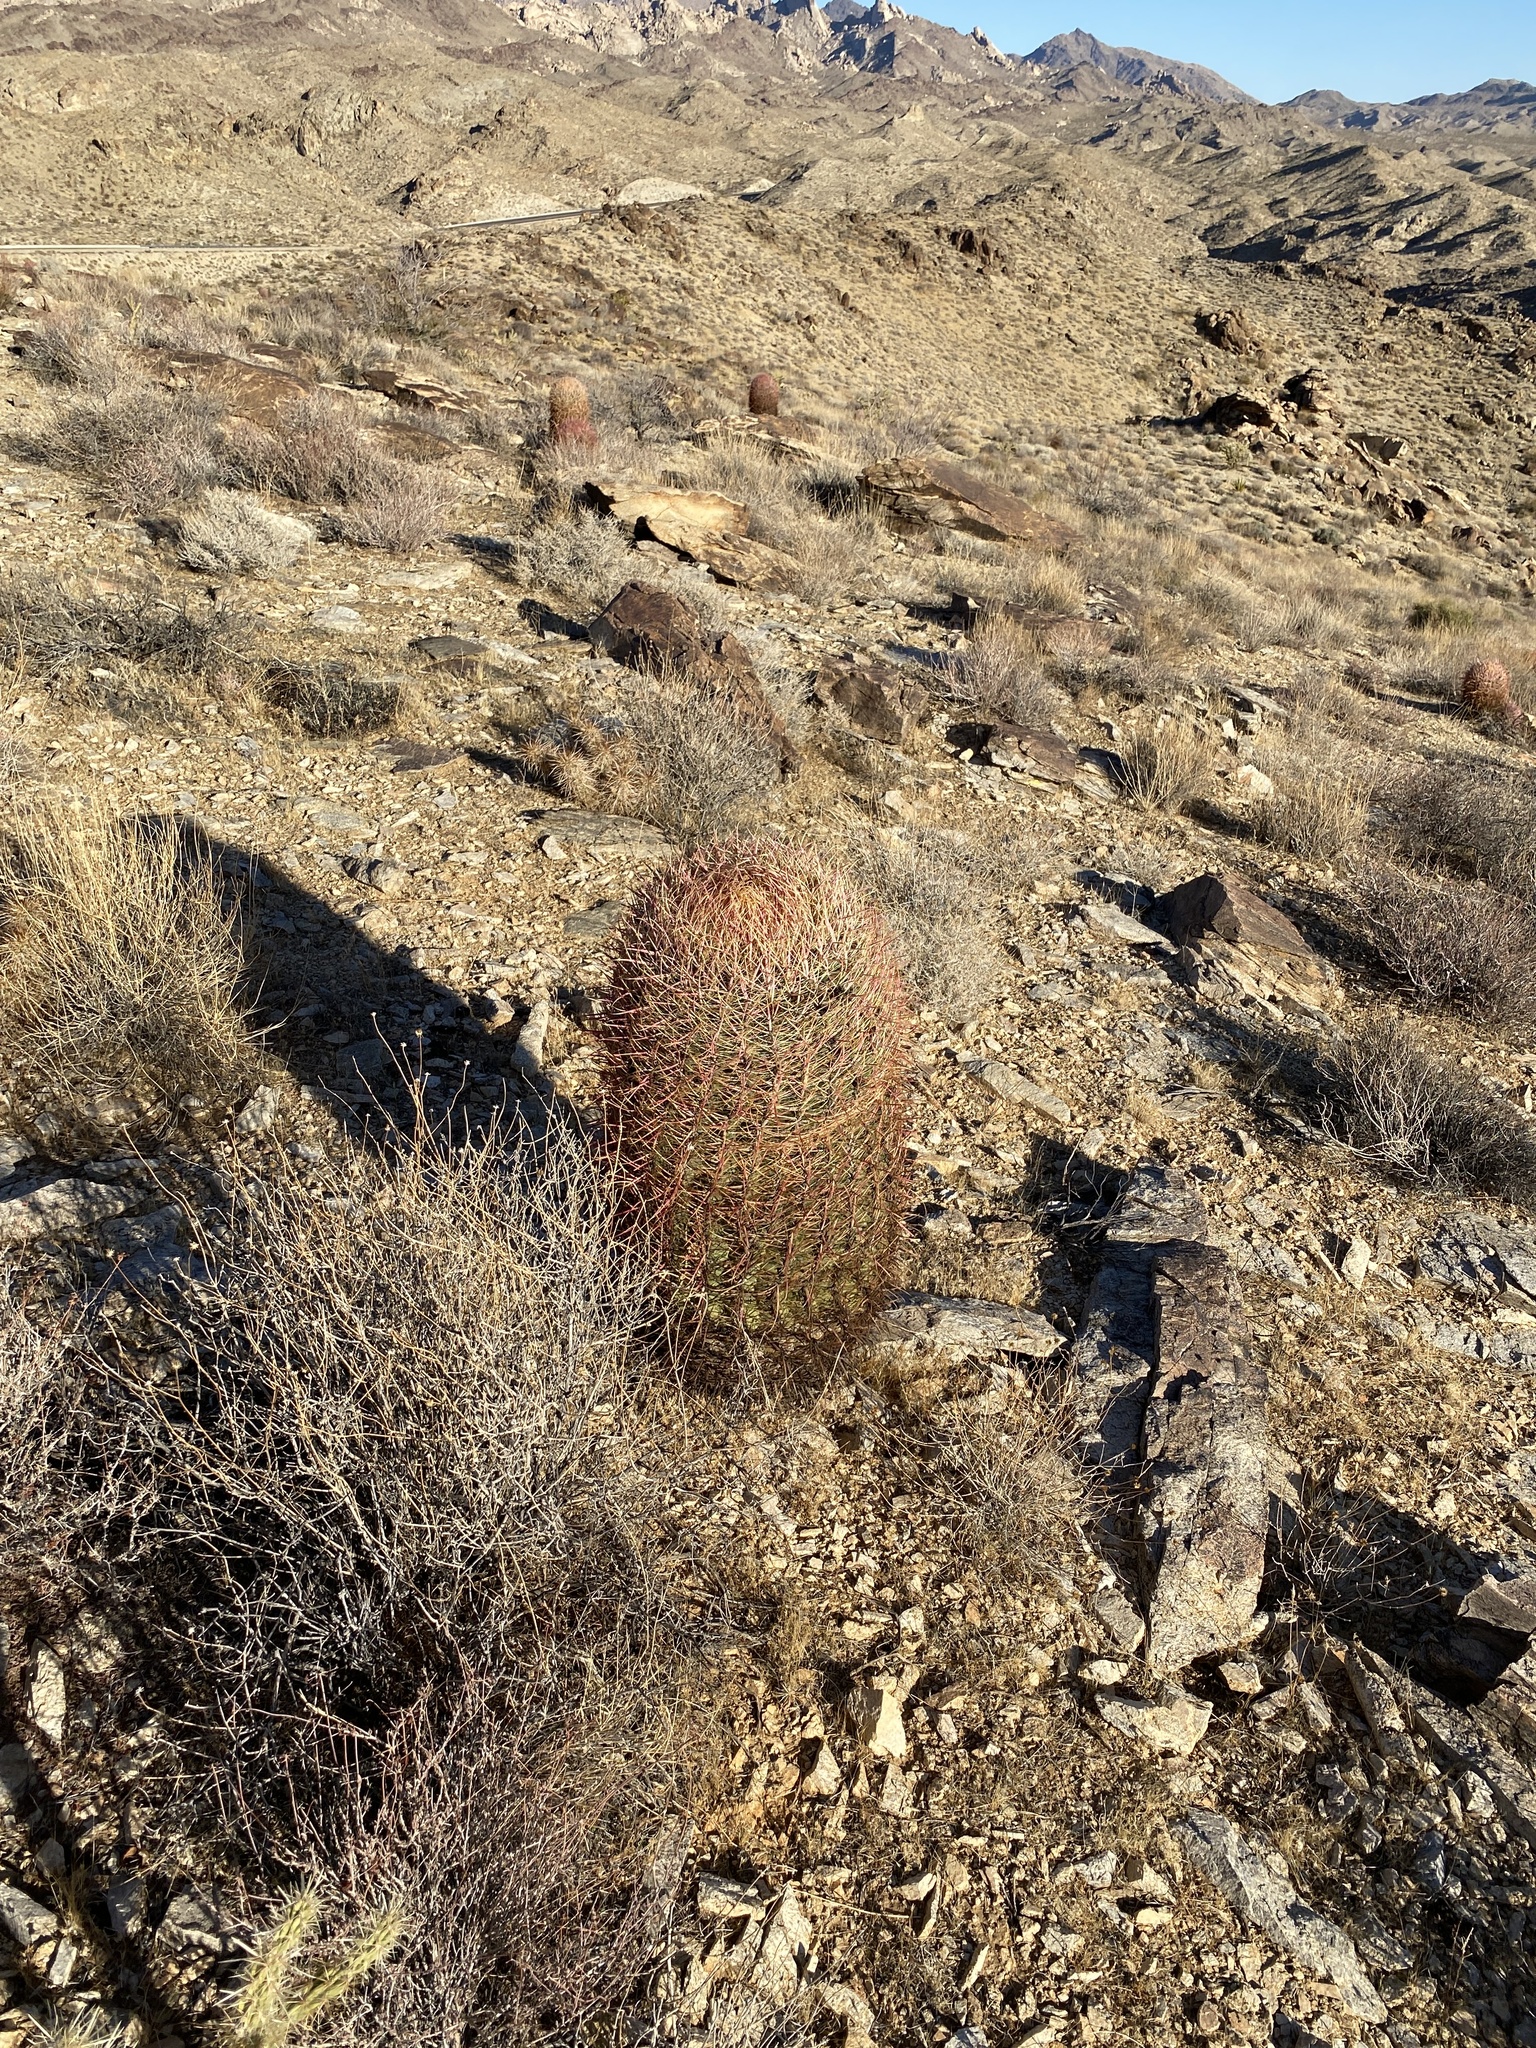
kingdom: Plantae
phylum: Tracheophyta
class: Magnoliopsida
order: Caryophyllales
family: Cactaceae
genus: Ferocactus
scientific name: Ferocactus cylindraceus
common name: California barrel cactus
